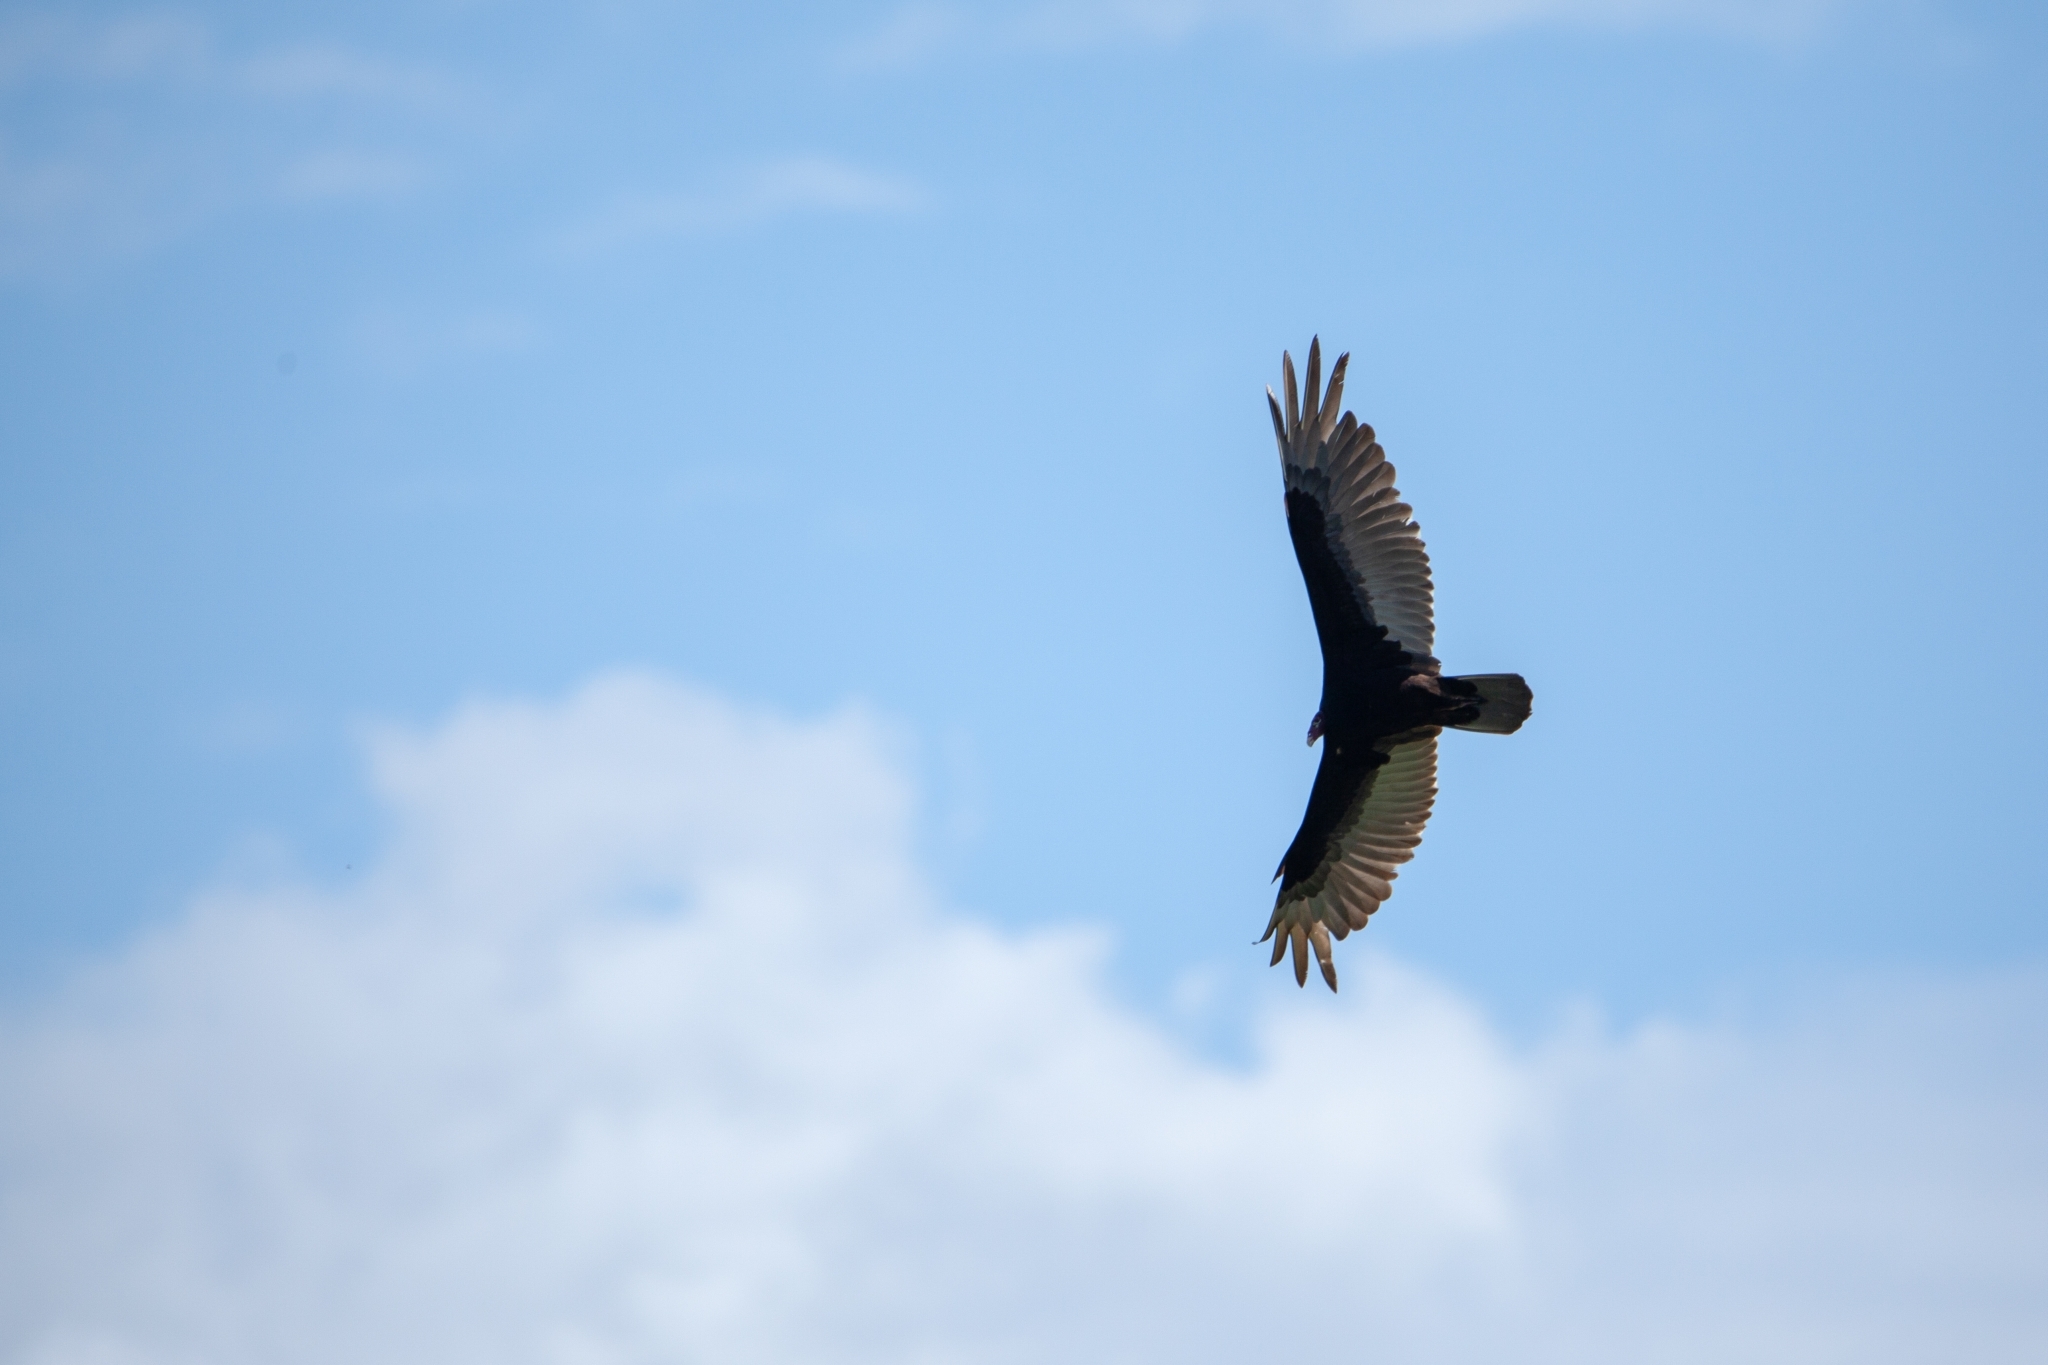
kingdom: Animalia
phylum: Chordata
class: Aves
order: Accipitriformes
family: Cathartidae
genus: Cathartes
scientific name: Cathartes aura
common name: Turkey vulture
